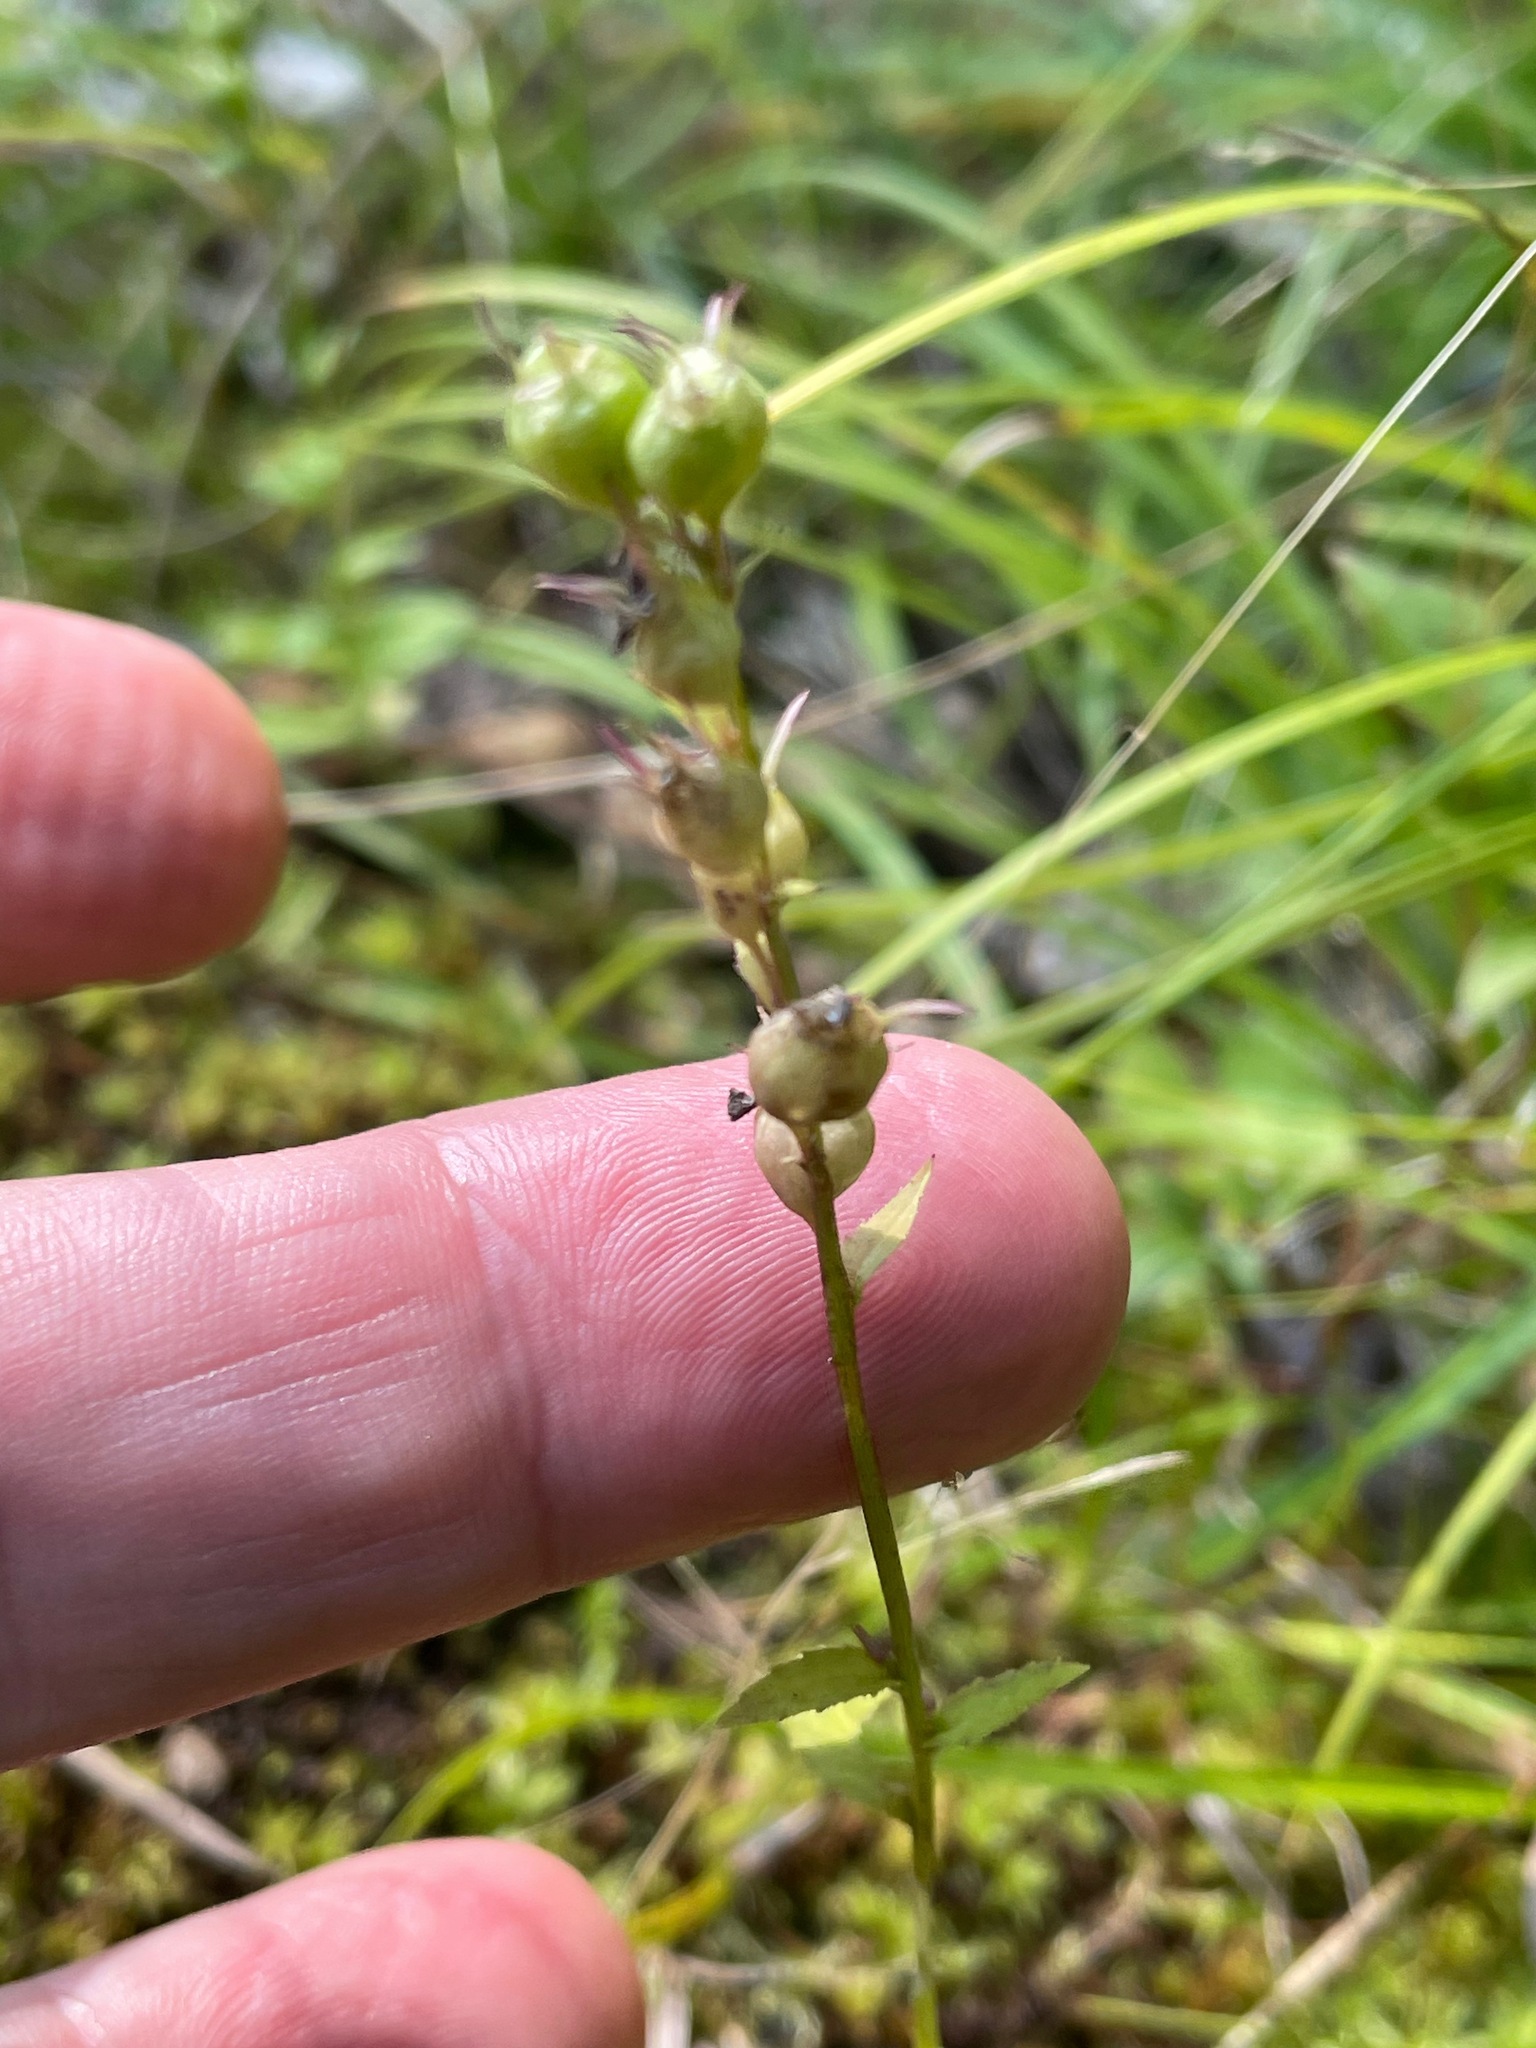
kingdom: Plantae
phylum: Tracheophyta
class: Magnoliopsida
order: Asterales
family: Campanulaceae
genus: Lobelia
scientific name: Lobelia inflata
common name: Indian tobacco
